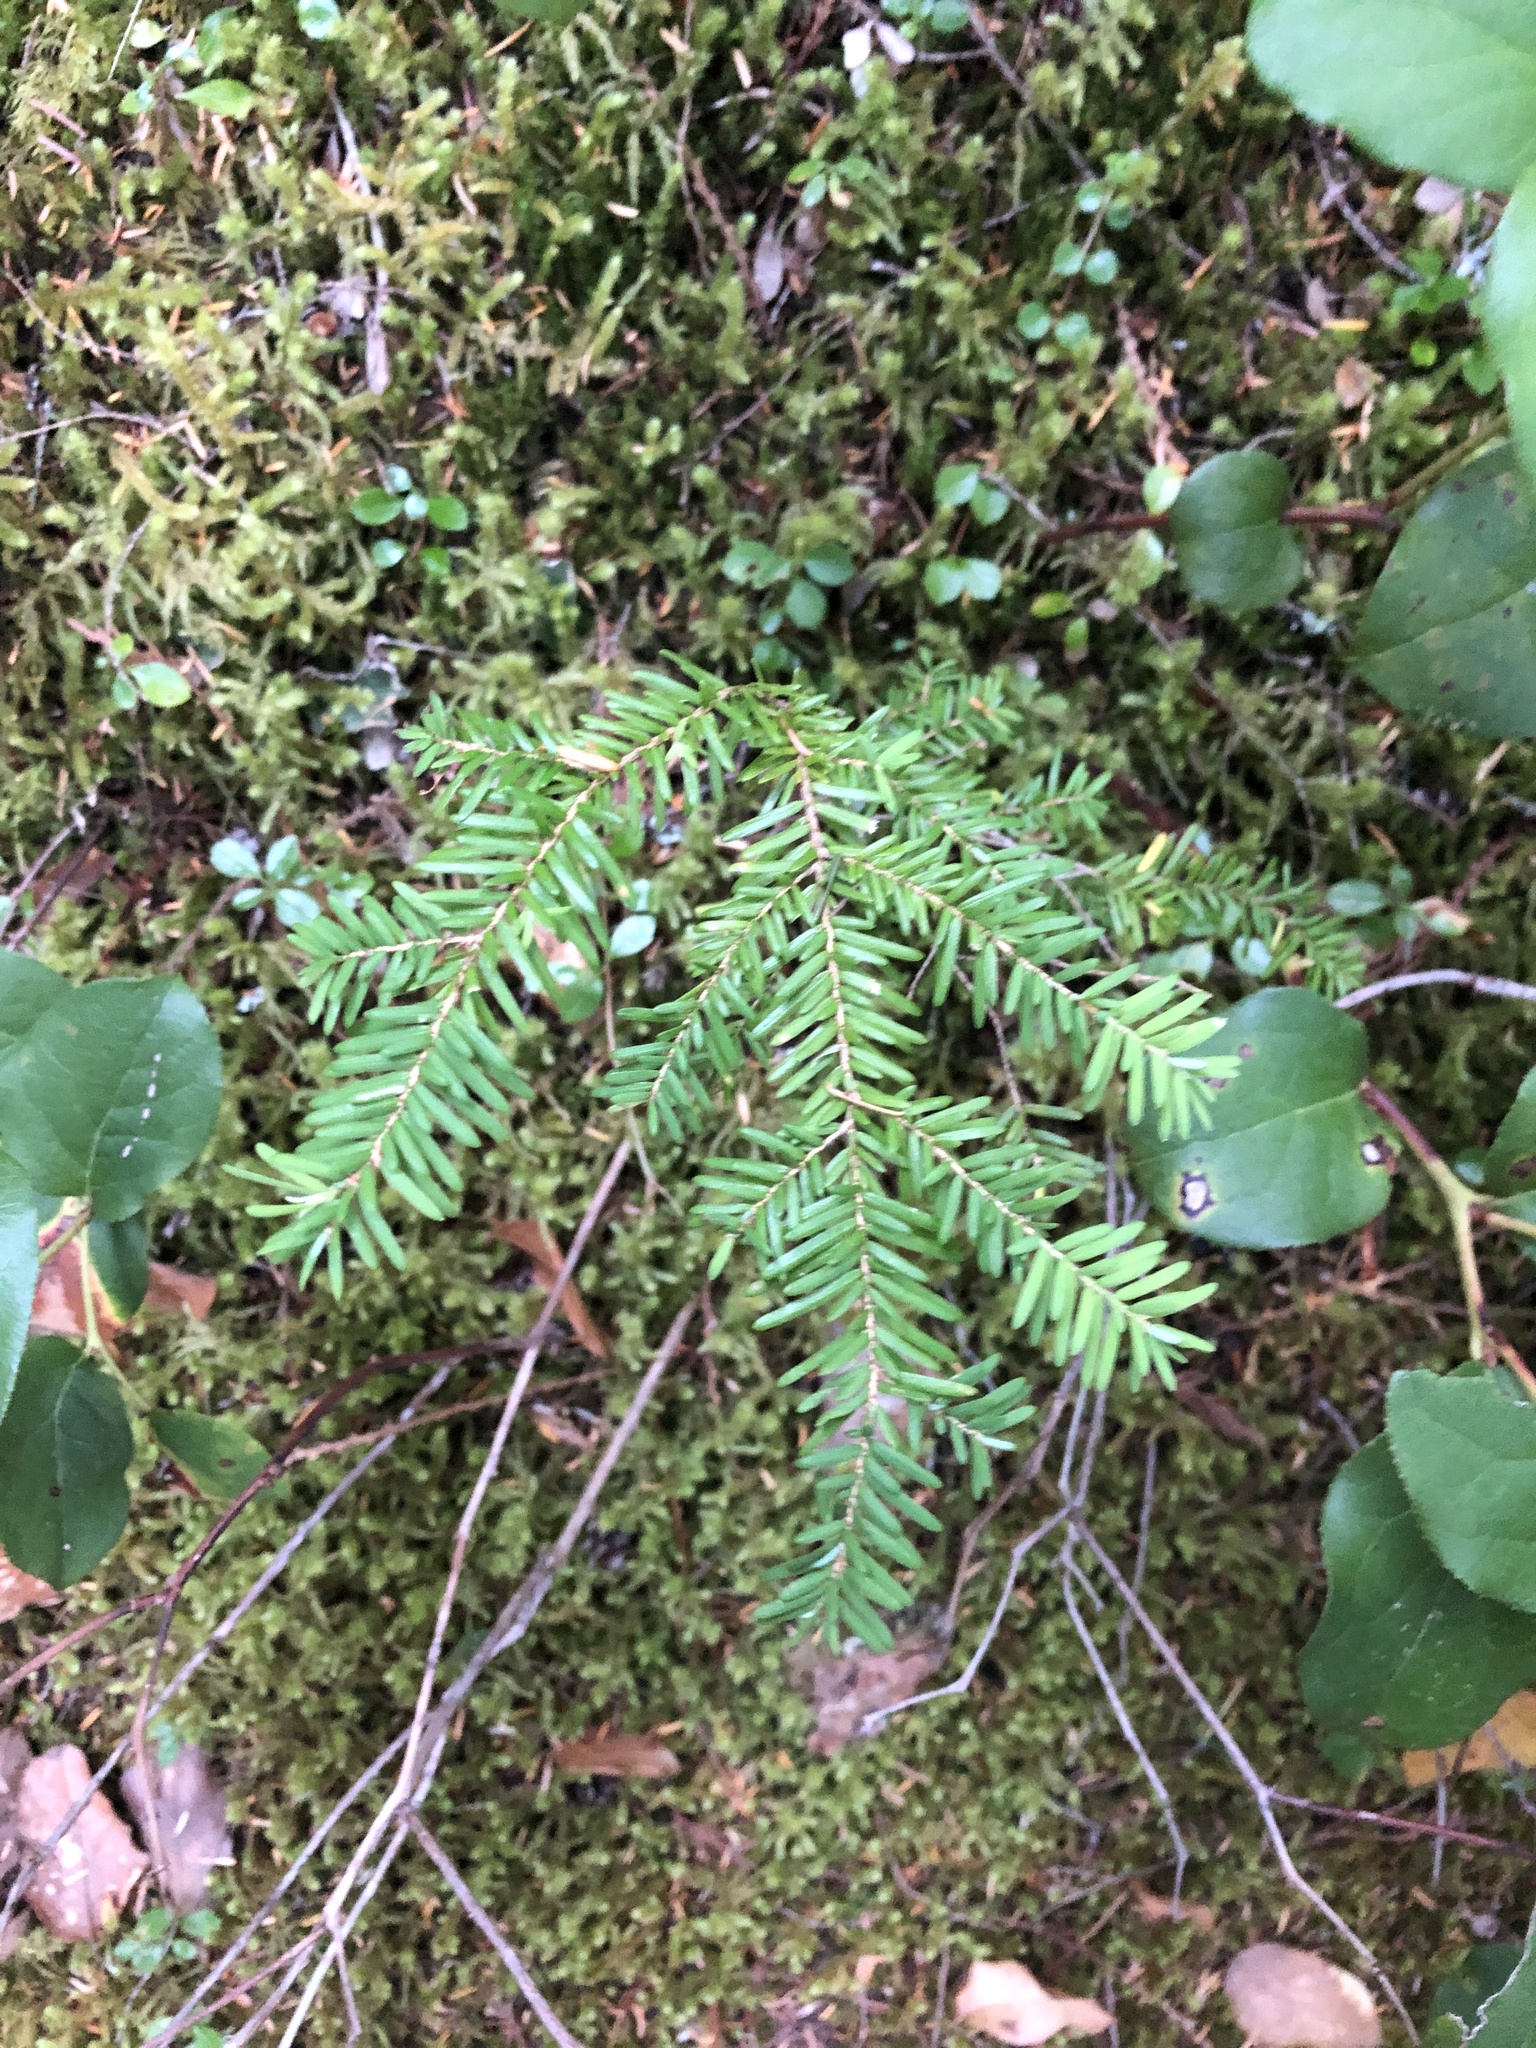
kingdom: Plantae
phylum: Tracheophyta
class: Pinopsida
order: Pinales
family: Pinaceae
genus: Tsuga
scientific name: Tsuga heterophylla
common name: Western hemlock
